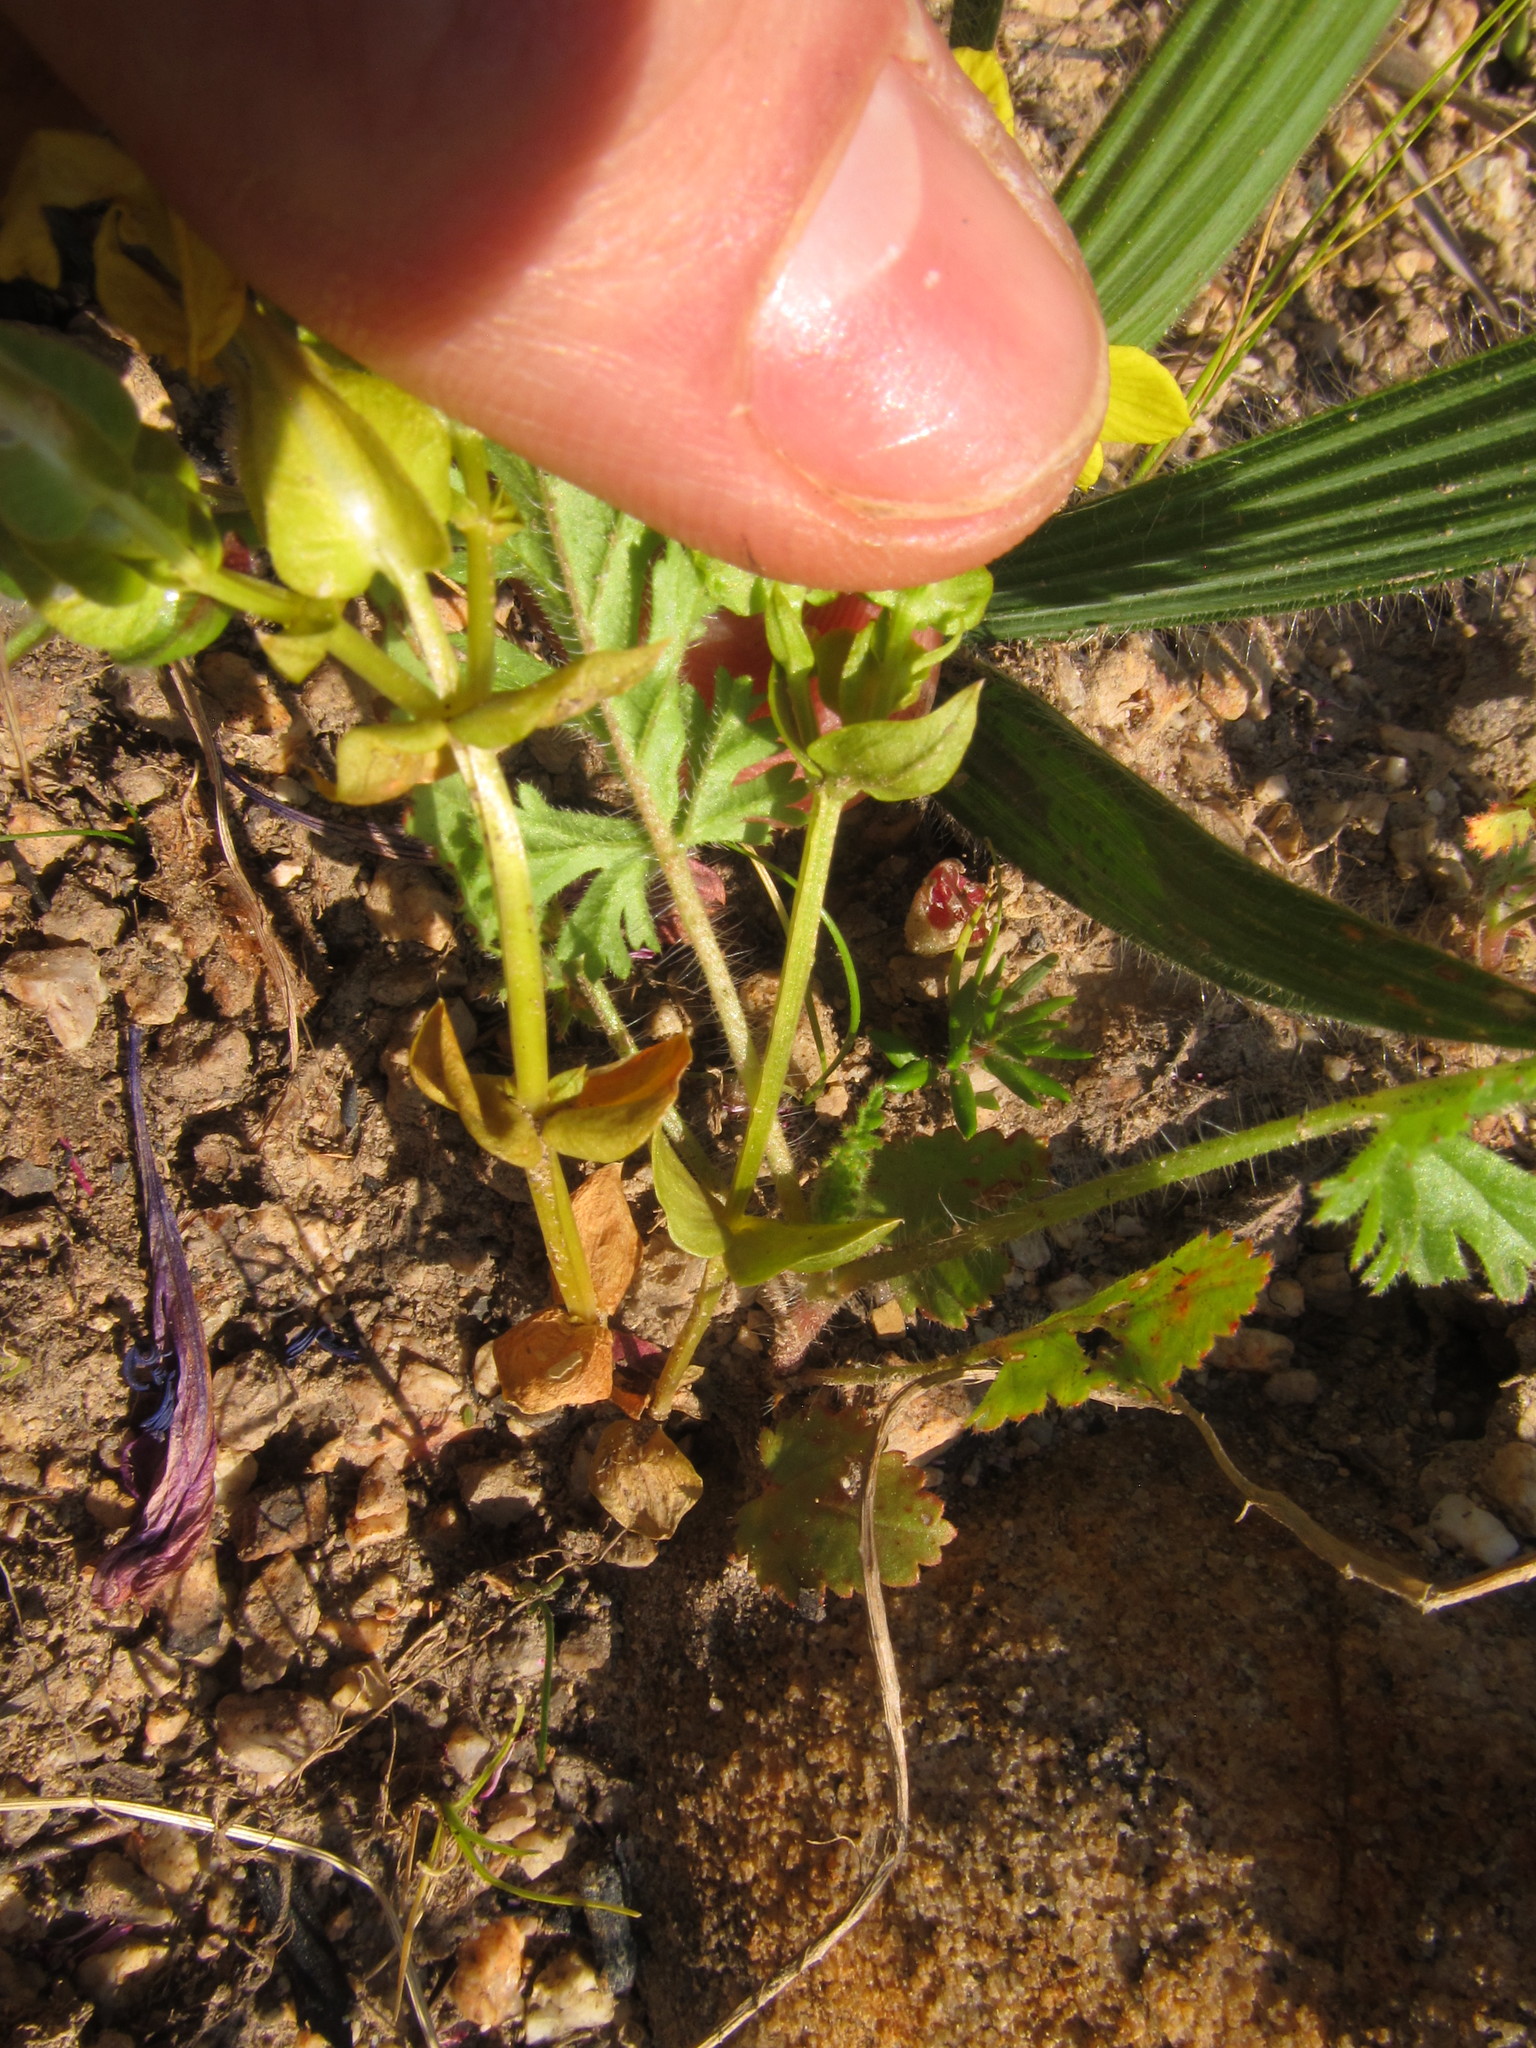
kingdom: Plantae
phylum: Tracheophyta
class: Magnoliopsida
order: Gentianales
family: Gentianaceae
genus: Sebaea
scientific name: Sebaea exacoides
